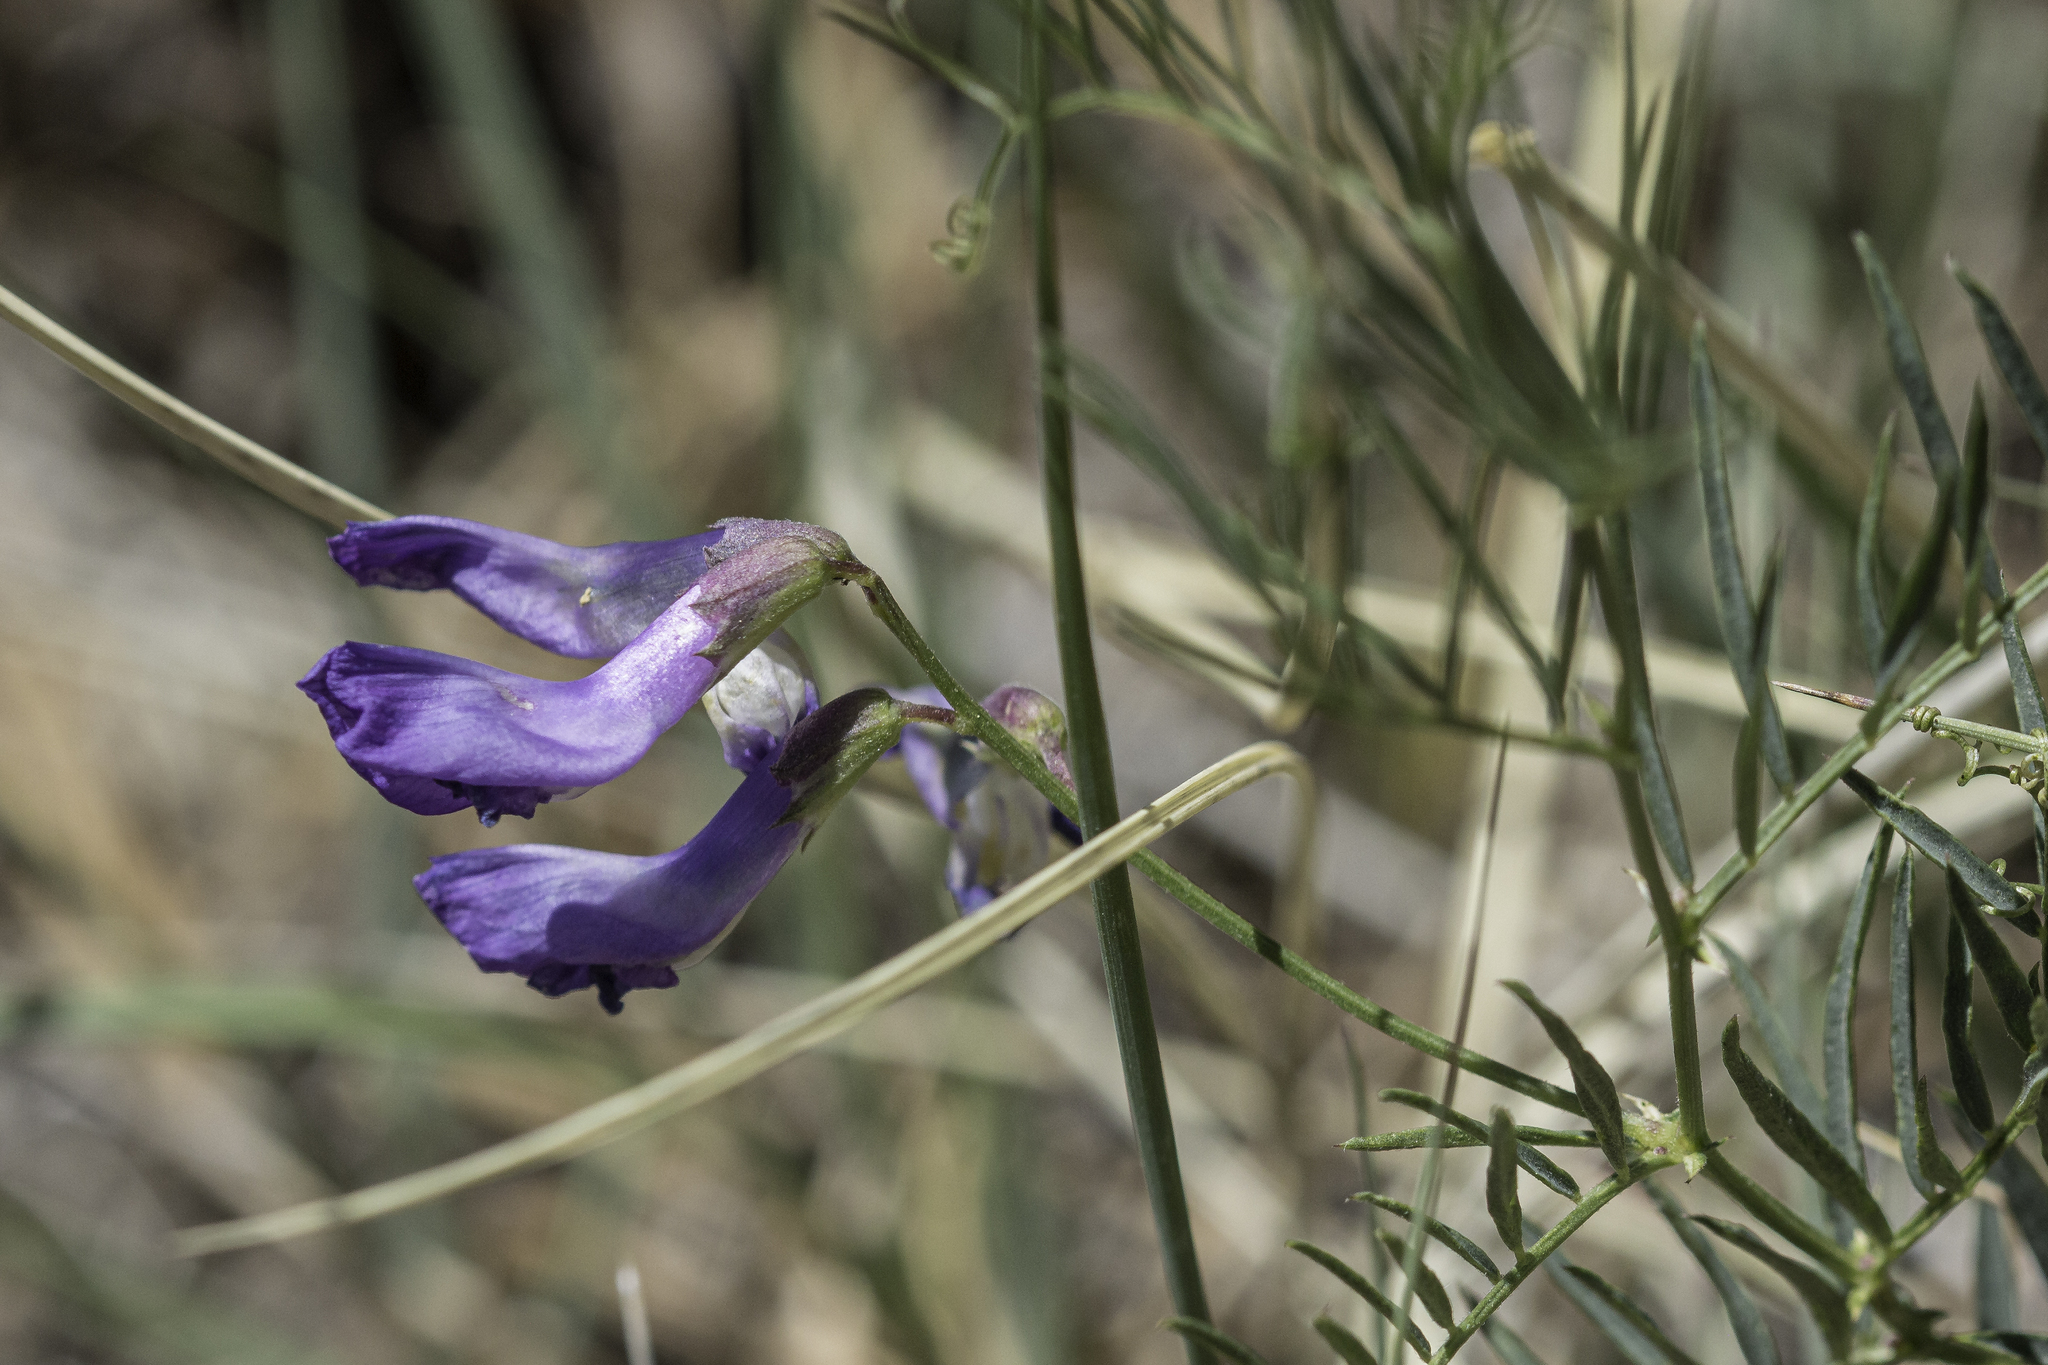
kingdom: Plantae
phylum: Tracheophyta
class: Magnoliopsida
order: Fabales
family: Fabaceae
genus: Vicia
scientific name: Vicia americana
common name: American vetch
